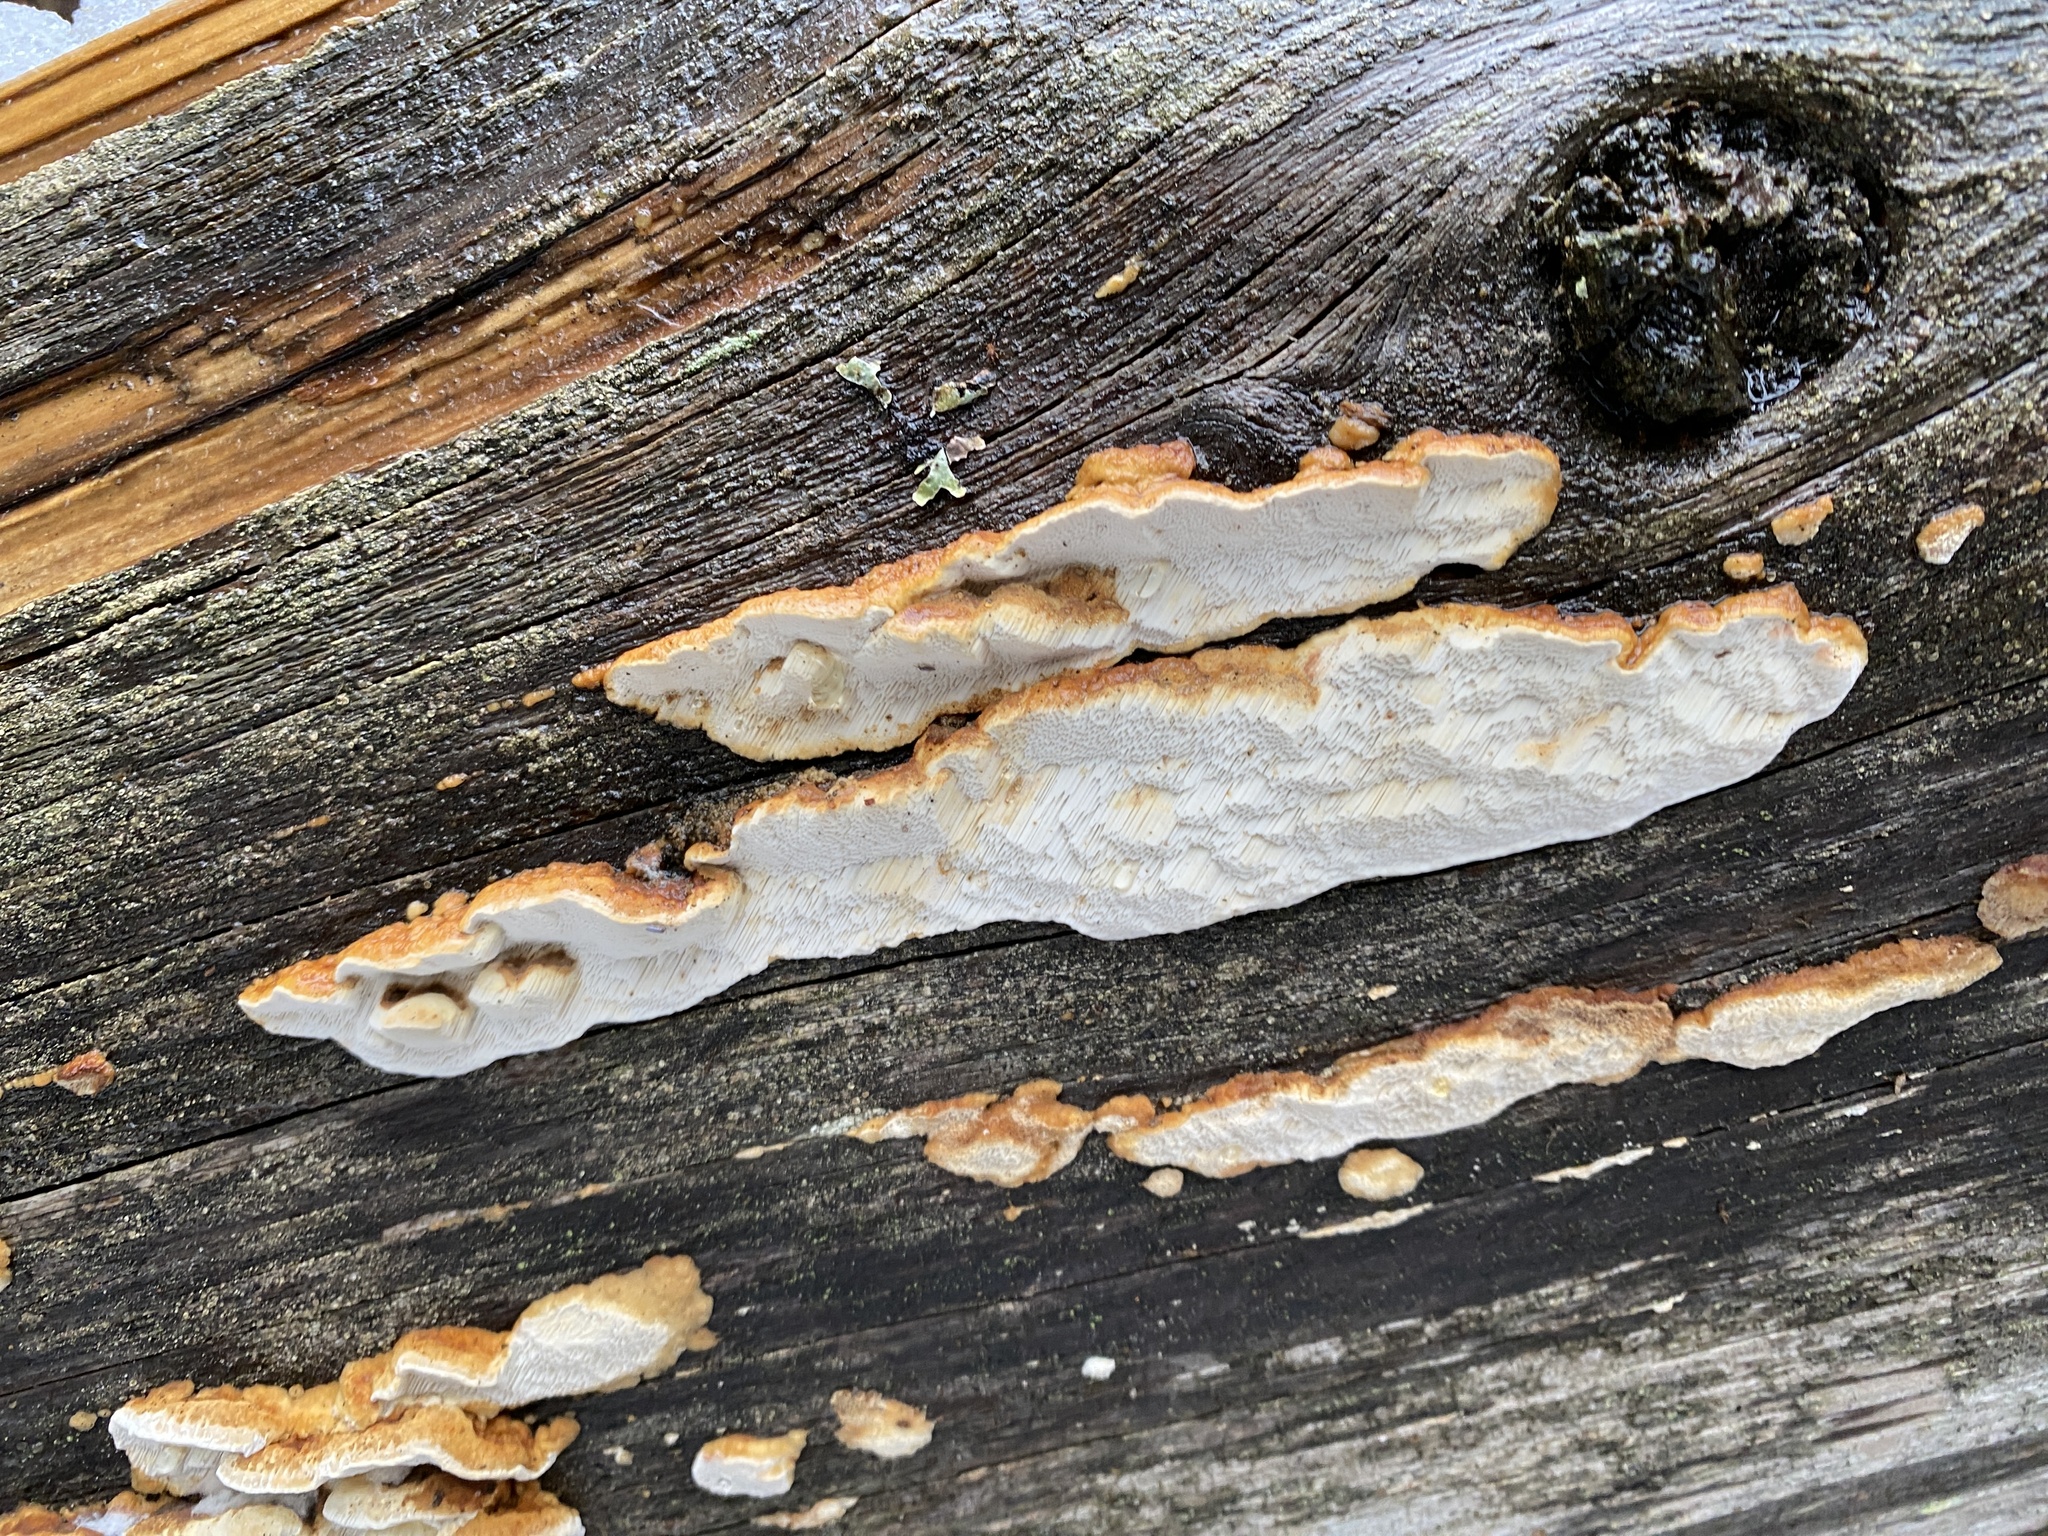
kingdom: Fungi
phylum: Basidiomycota
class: Agaricomycetes
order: Polyporales
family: Fomitopsidaceae
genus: Neoantrodia
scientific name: Neoantrodia serialis
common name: Serried porecrust
